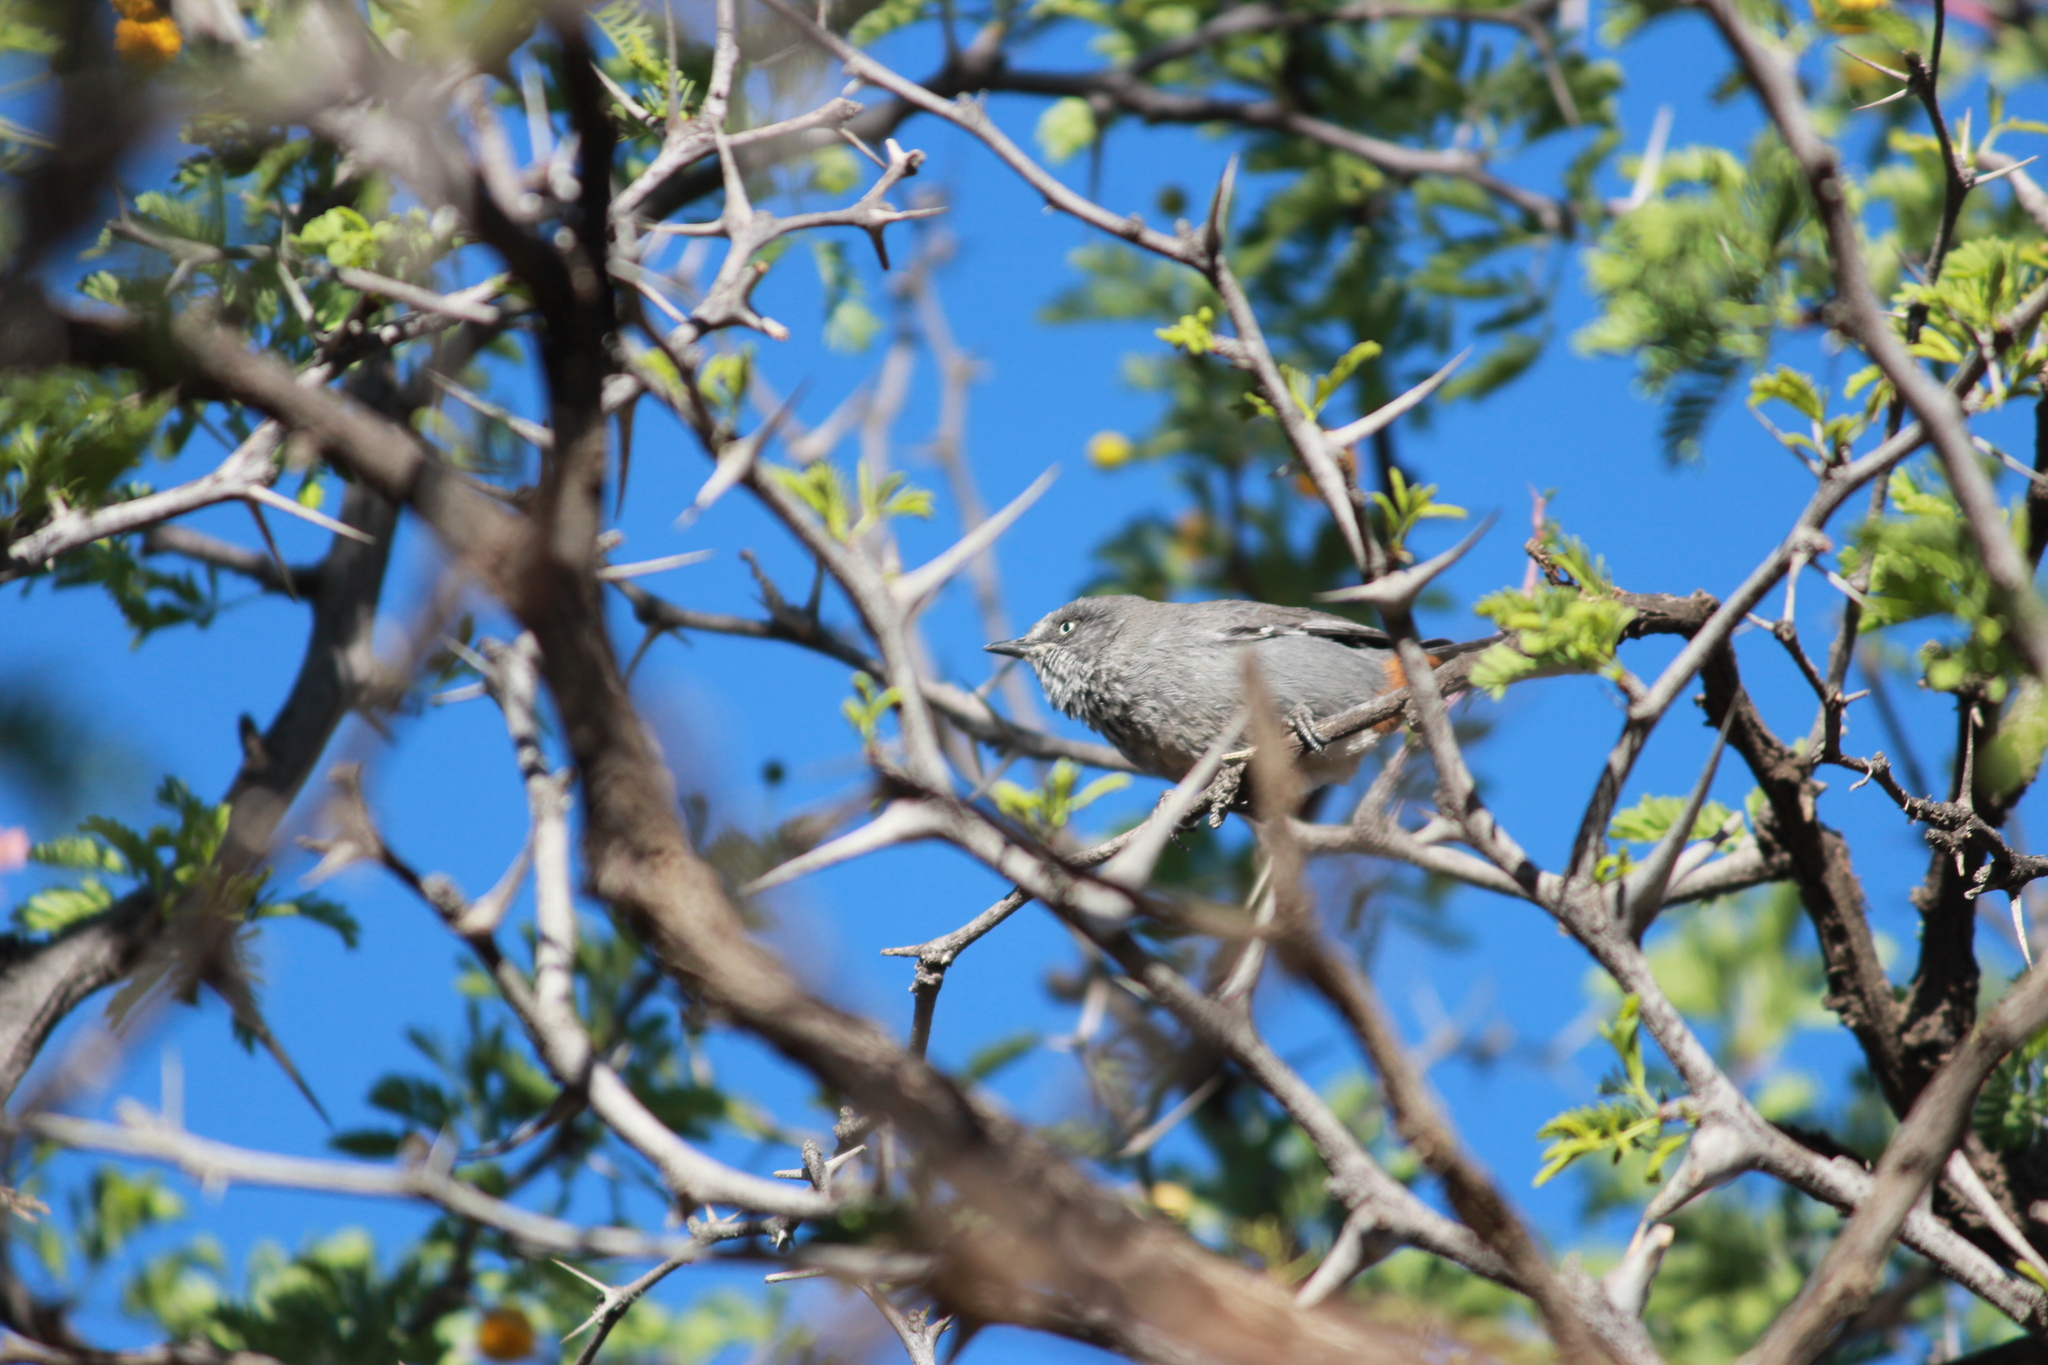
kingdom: Animalia
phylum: Chordata
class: Aves
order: Passeriformes
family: Sylviidae
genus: Curruca
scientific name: Curruca subcoerulea
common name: Chestnut-vented warbler
